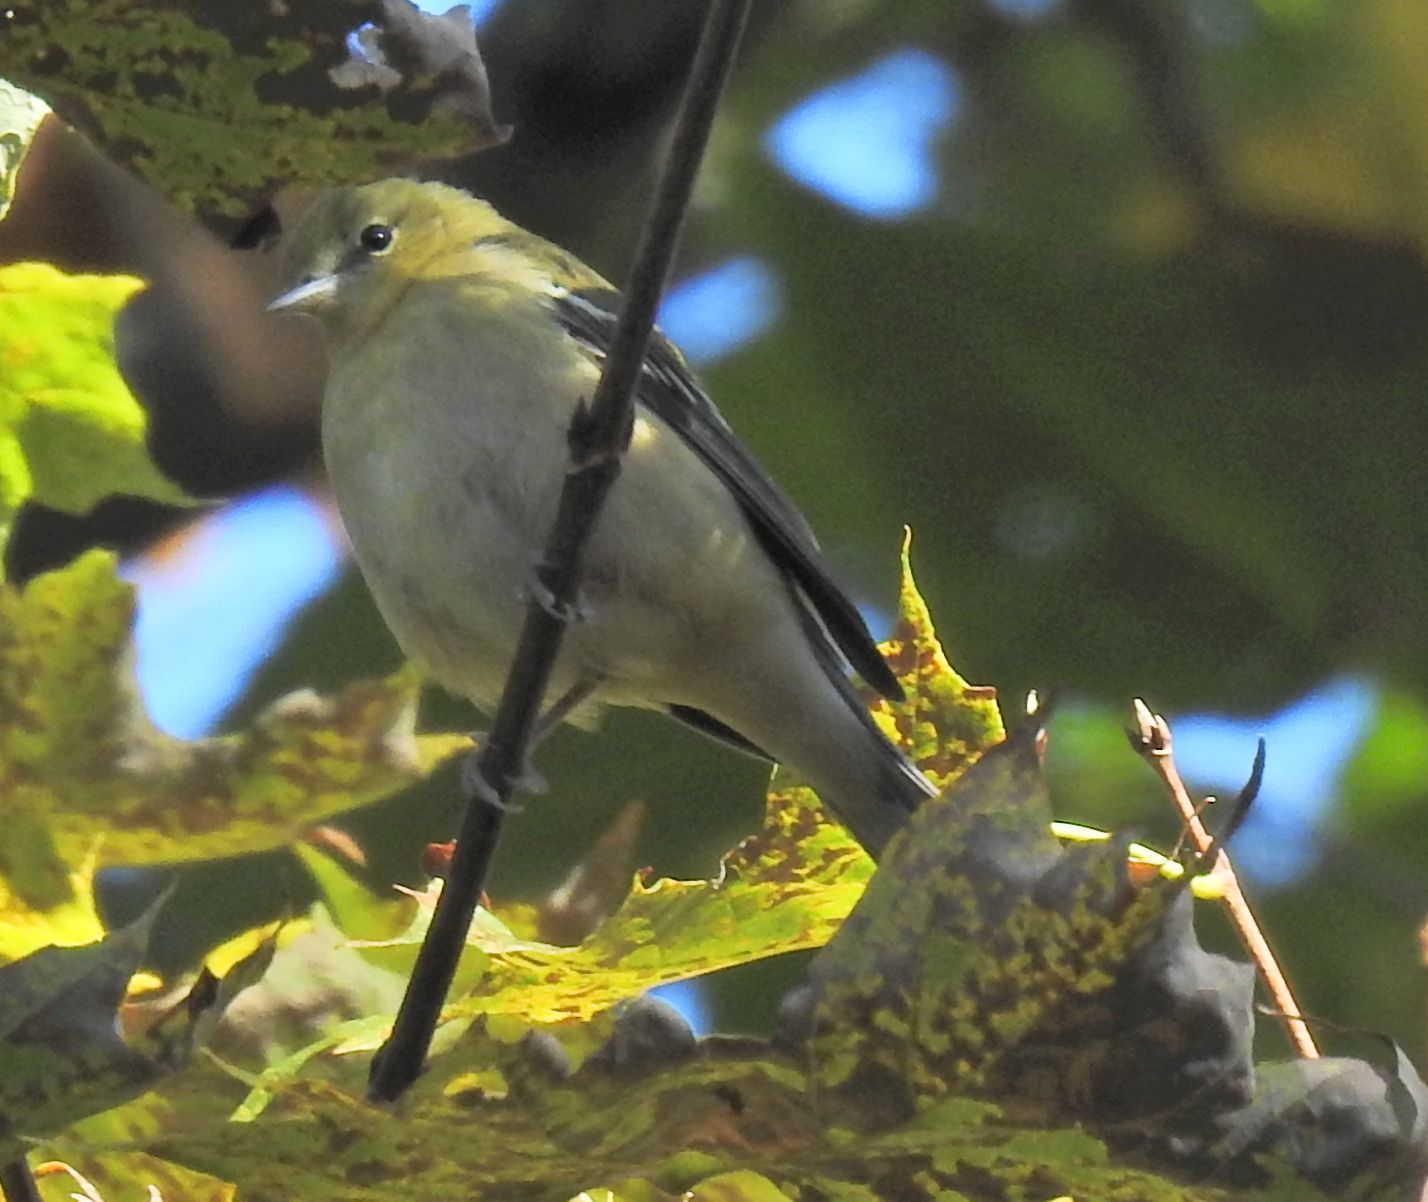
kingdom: Animalia
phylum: Chordata
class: Aves
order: Passeriformes
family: Parulidae
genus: Setophaga
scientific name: Setophaga castanea
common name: Bay-breasted warbler
